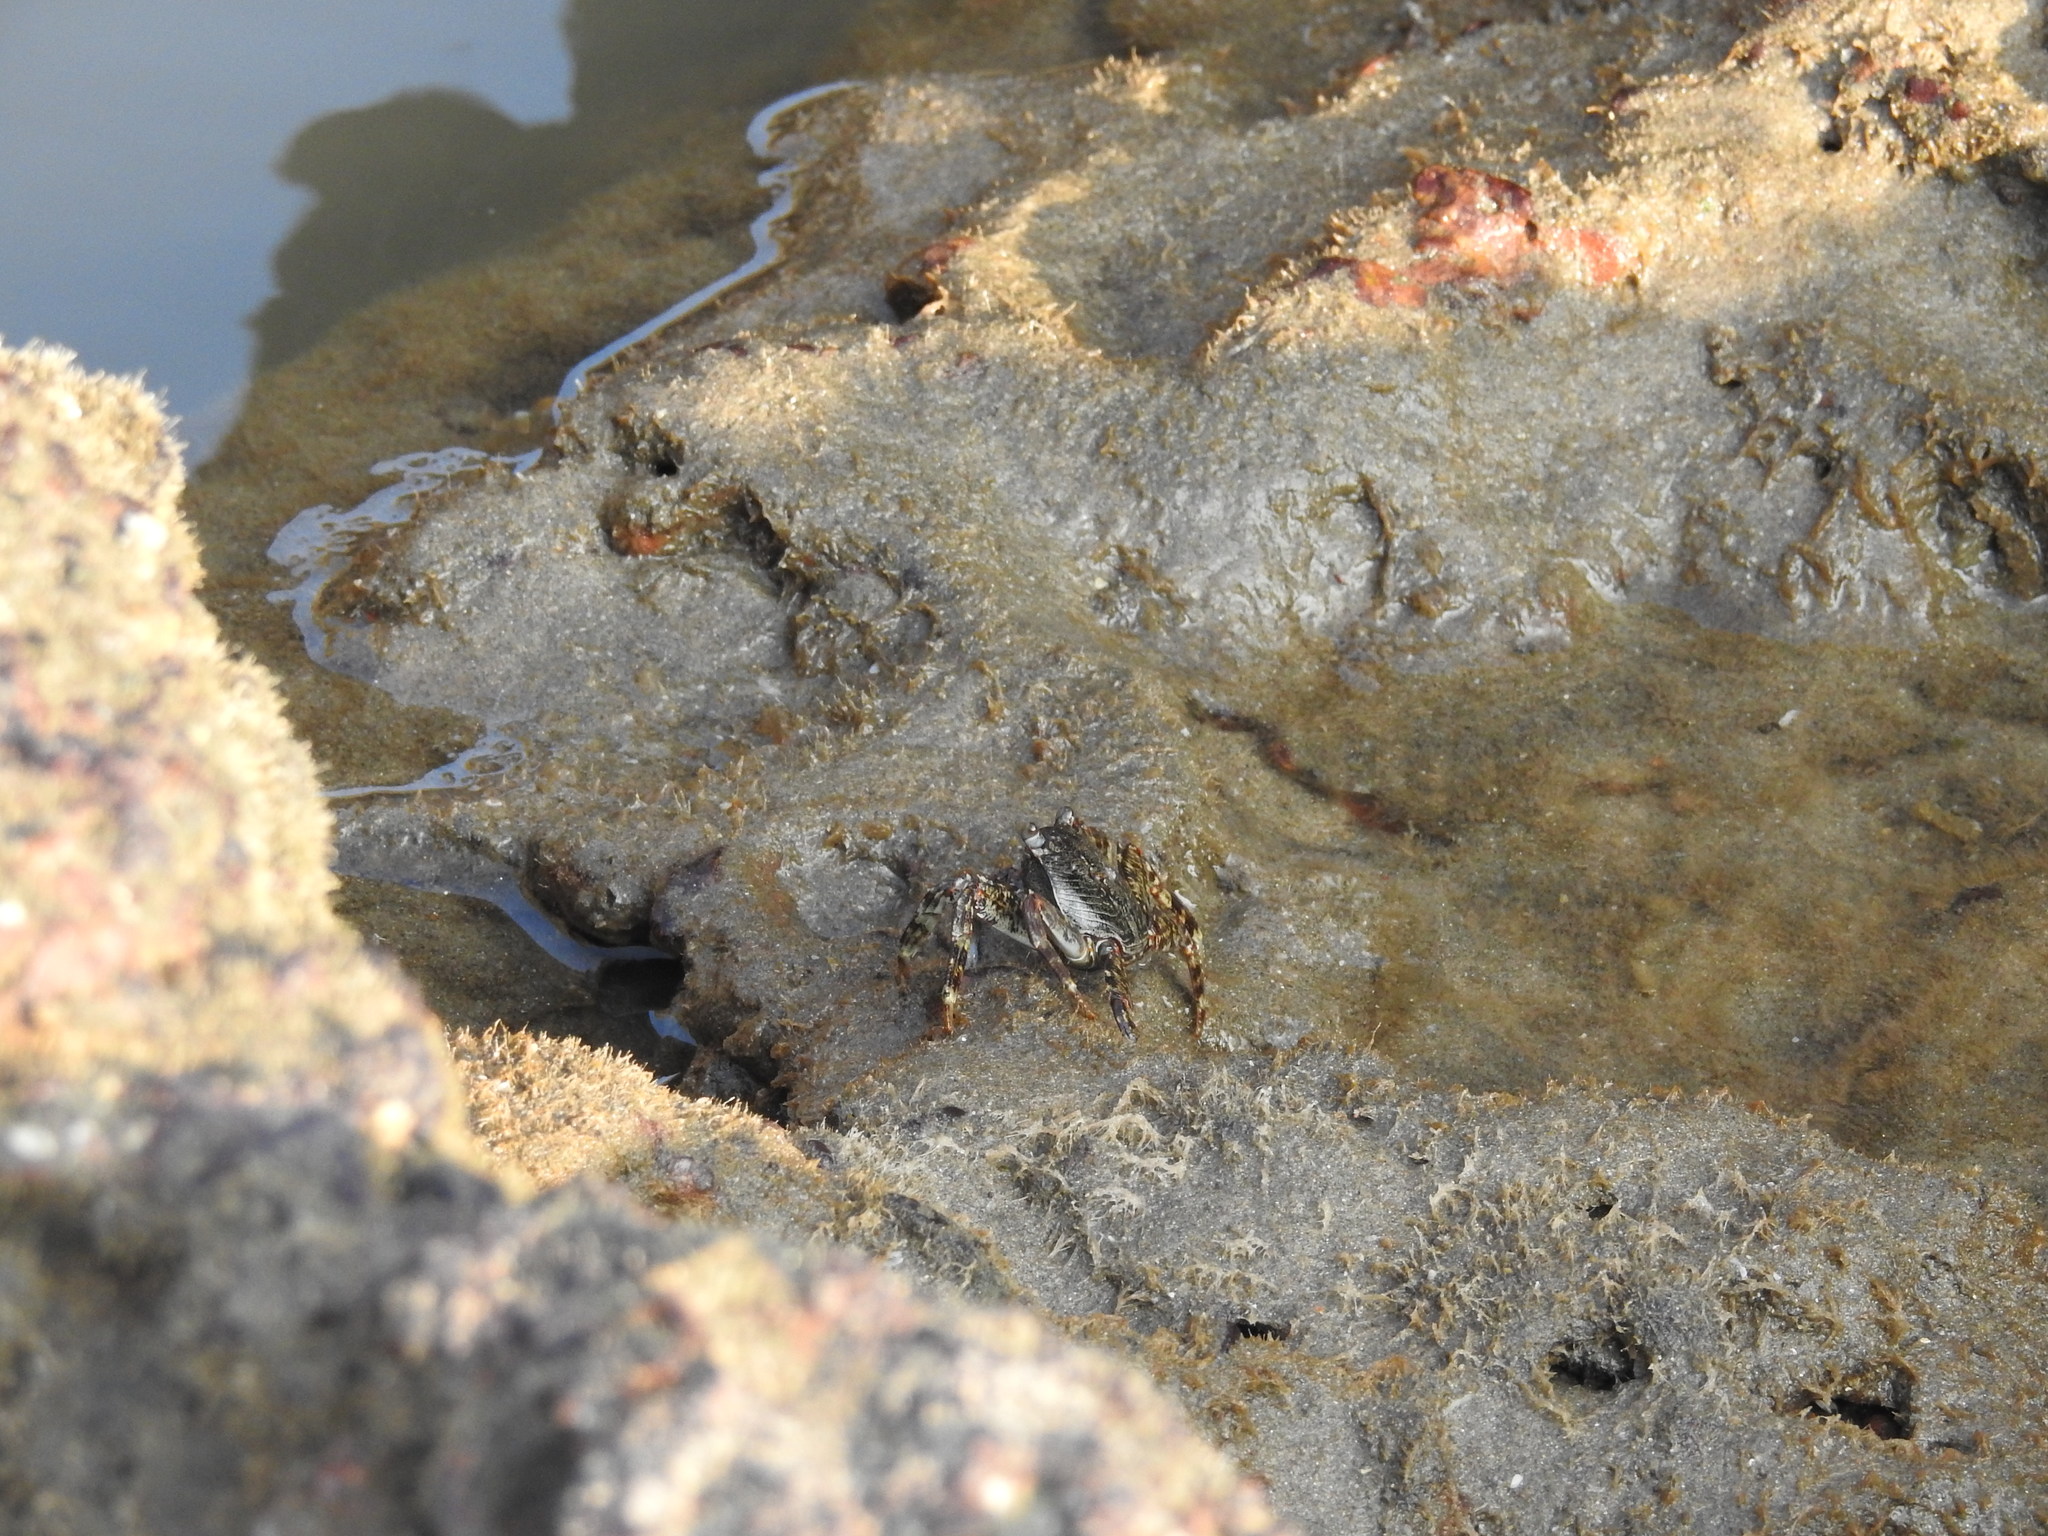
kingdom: Animalia
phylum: Arthropoda
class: Malacostraca
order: Decapoda
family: Grapsidae
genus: Grapsus
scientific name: Grapsus albolineatus
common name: Mottled lightfoot crab
